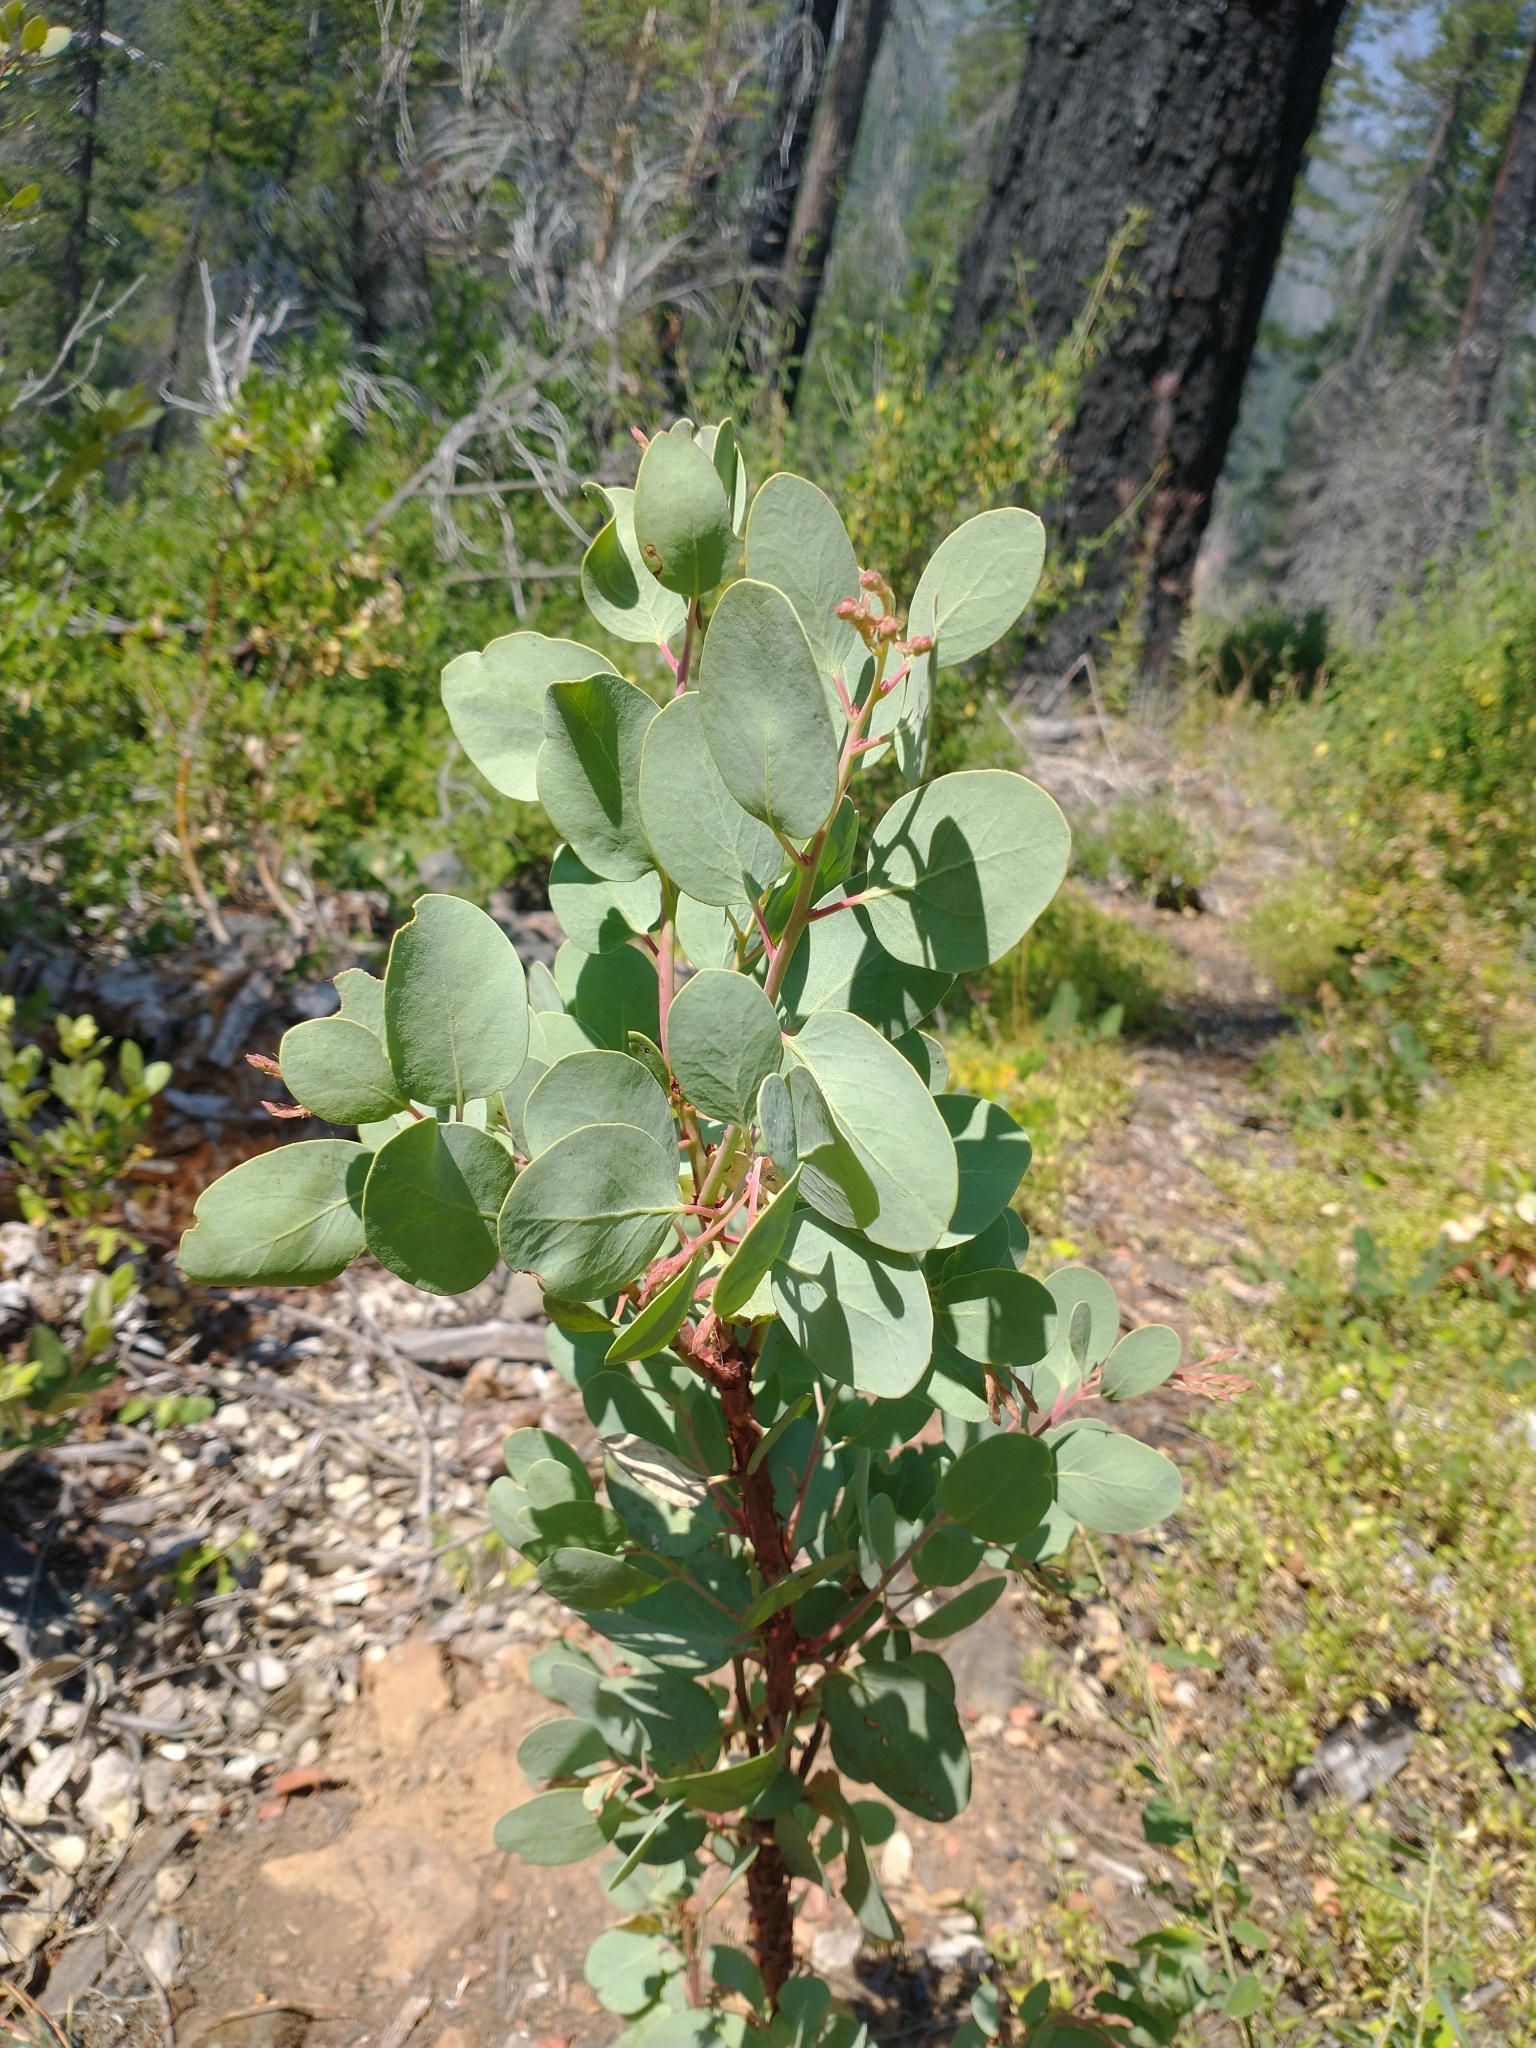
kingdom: Plantae
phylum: Tracheophyta
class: Magnoliopsida
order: Ericales
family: Ericaceae
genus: Arctostaphylos
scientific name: Arctostaphylos viscida
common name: White-leaf manzanita
